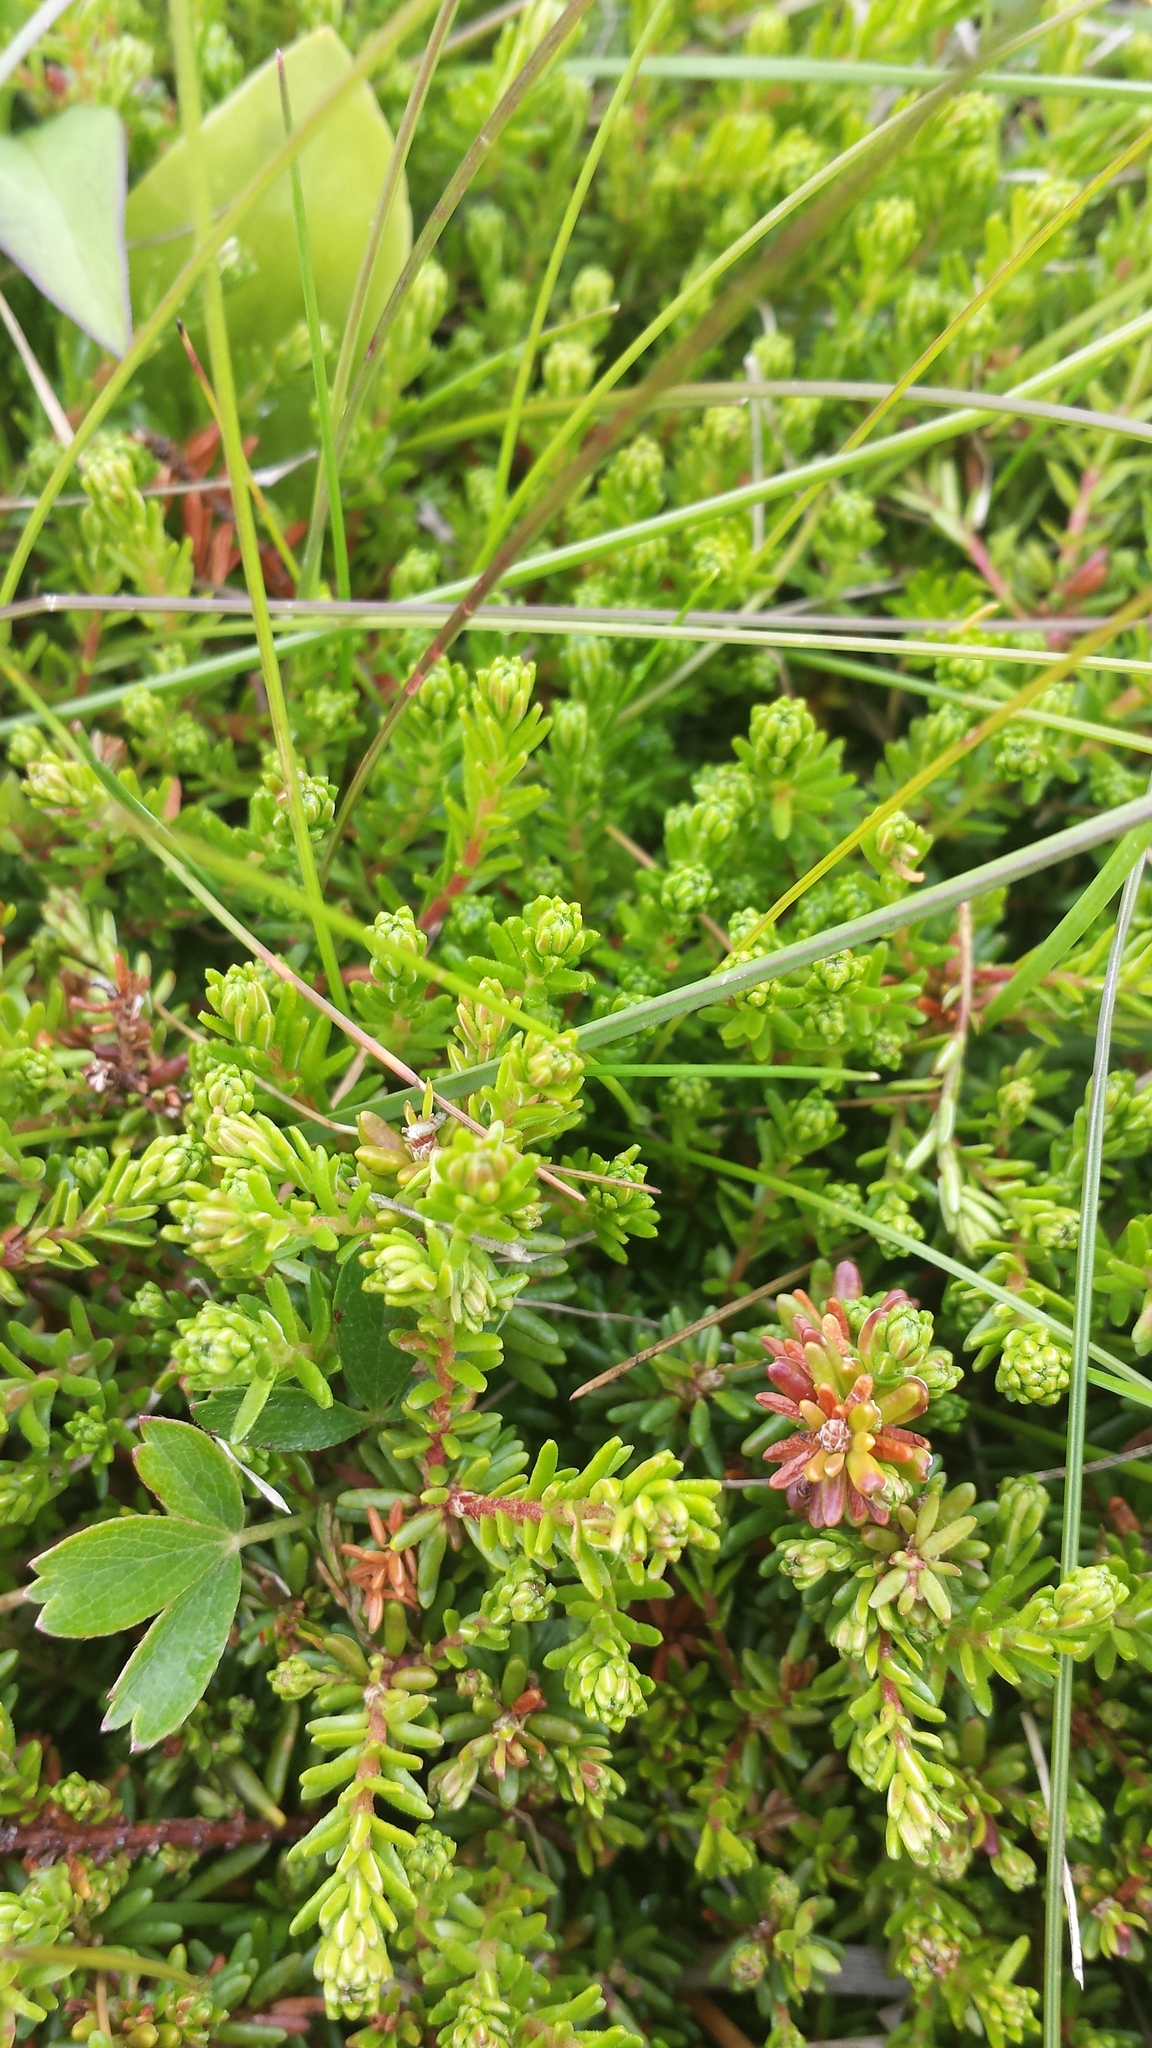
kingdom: Plantae
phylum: Tracheophyta
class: Magnoliopsida
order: Ericales
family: Ericaceae
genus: Empetrum
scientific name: Empetrum nigrum
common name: Black crowberry
